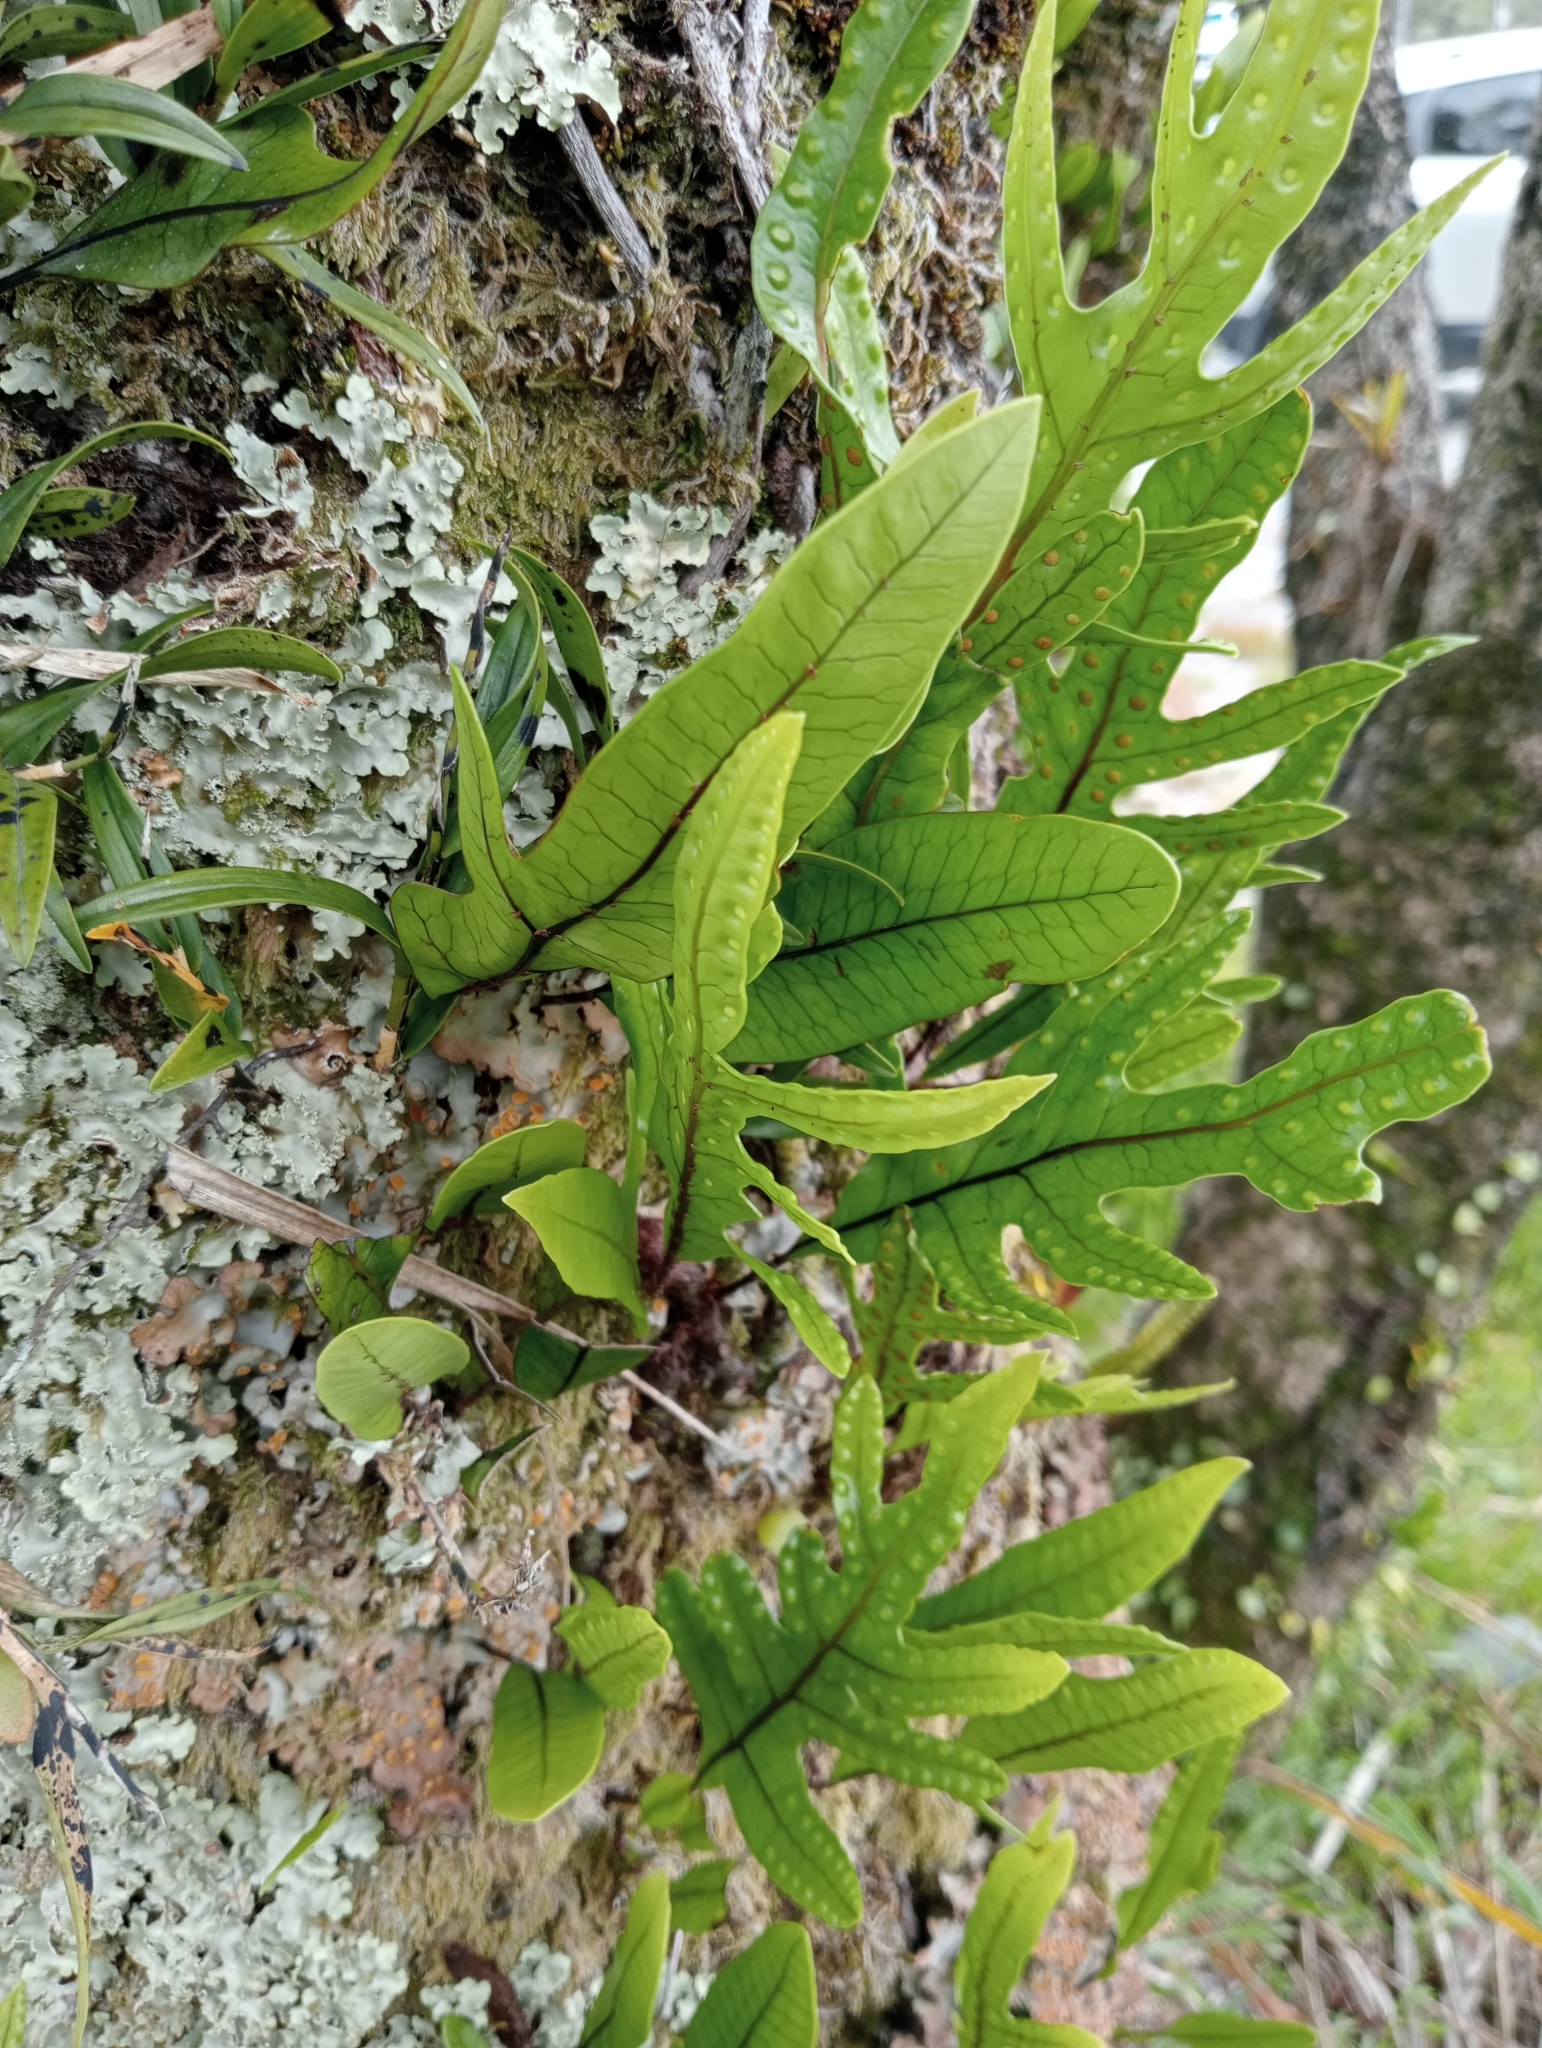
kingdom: Plantae
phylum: Tracheophyta
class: Polypodiopsida
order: Polypodiales
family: Polypodiaceae
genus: Lecanopteris
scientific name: Lecanopteris pustulata
